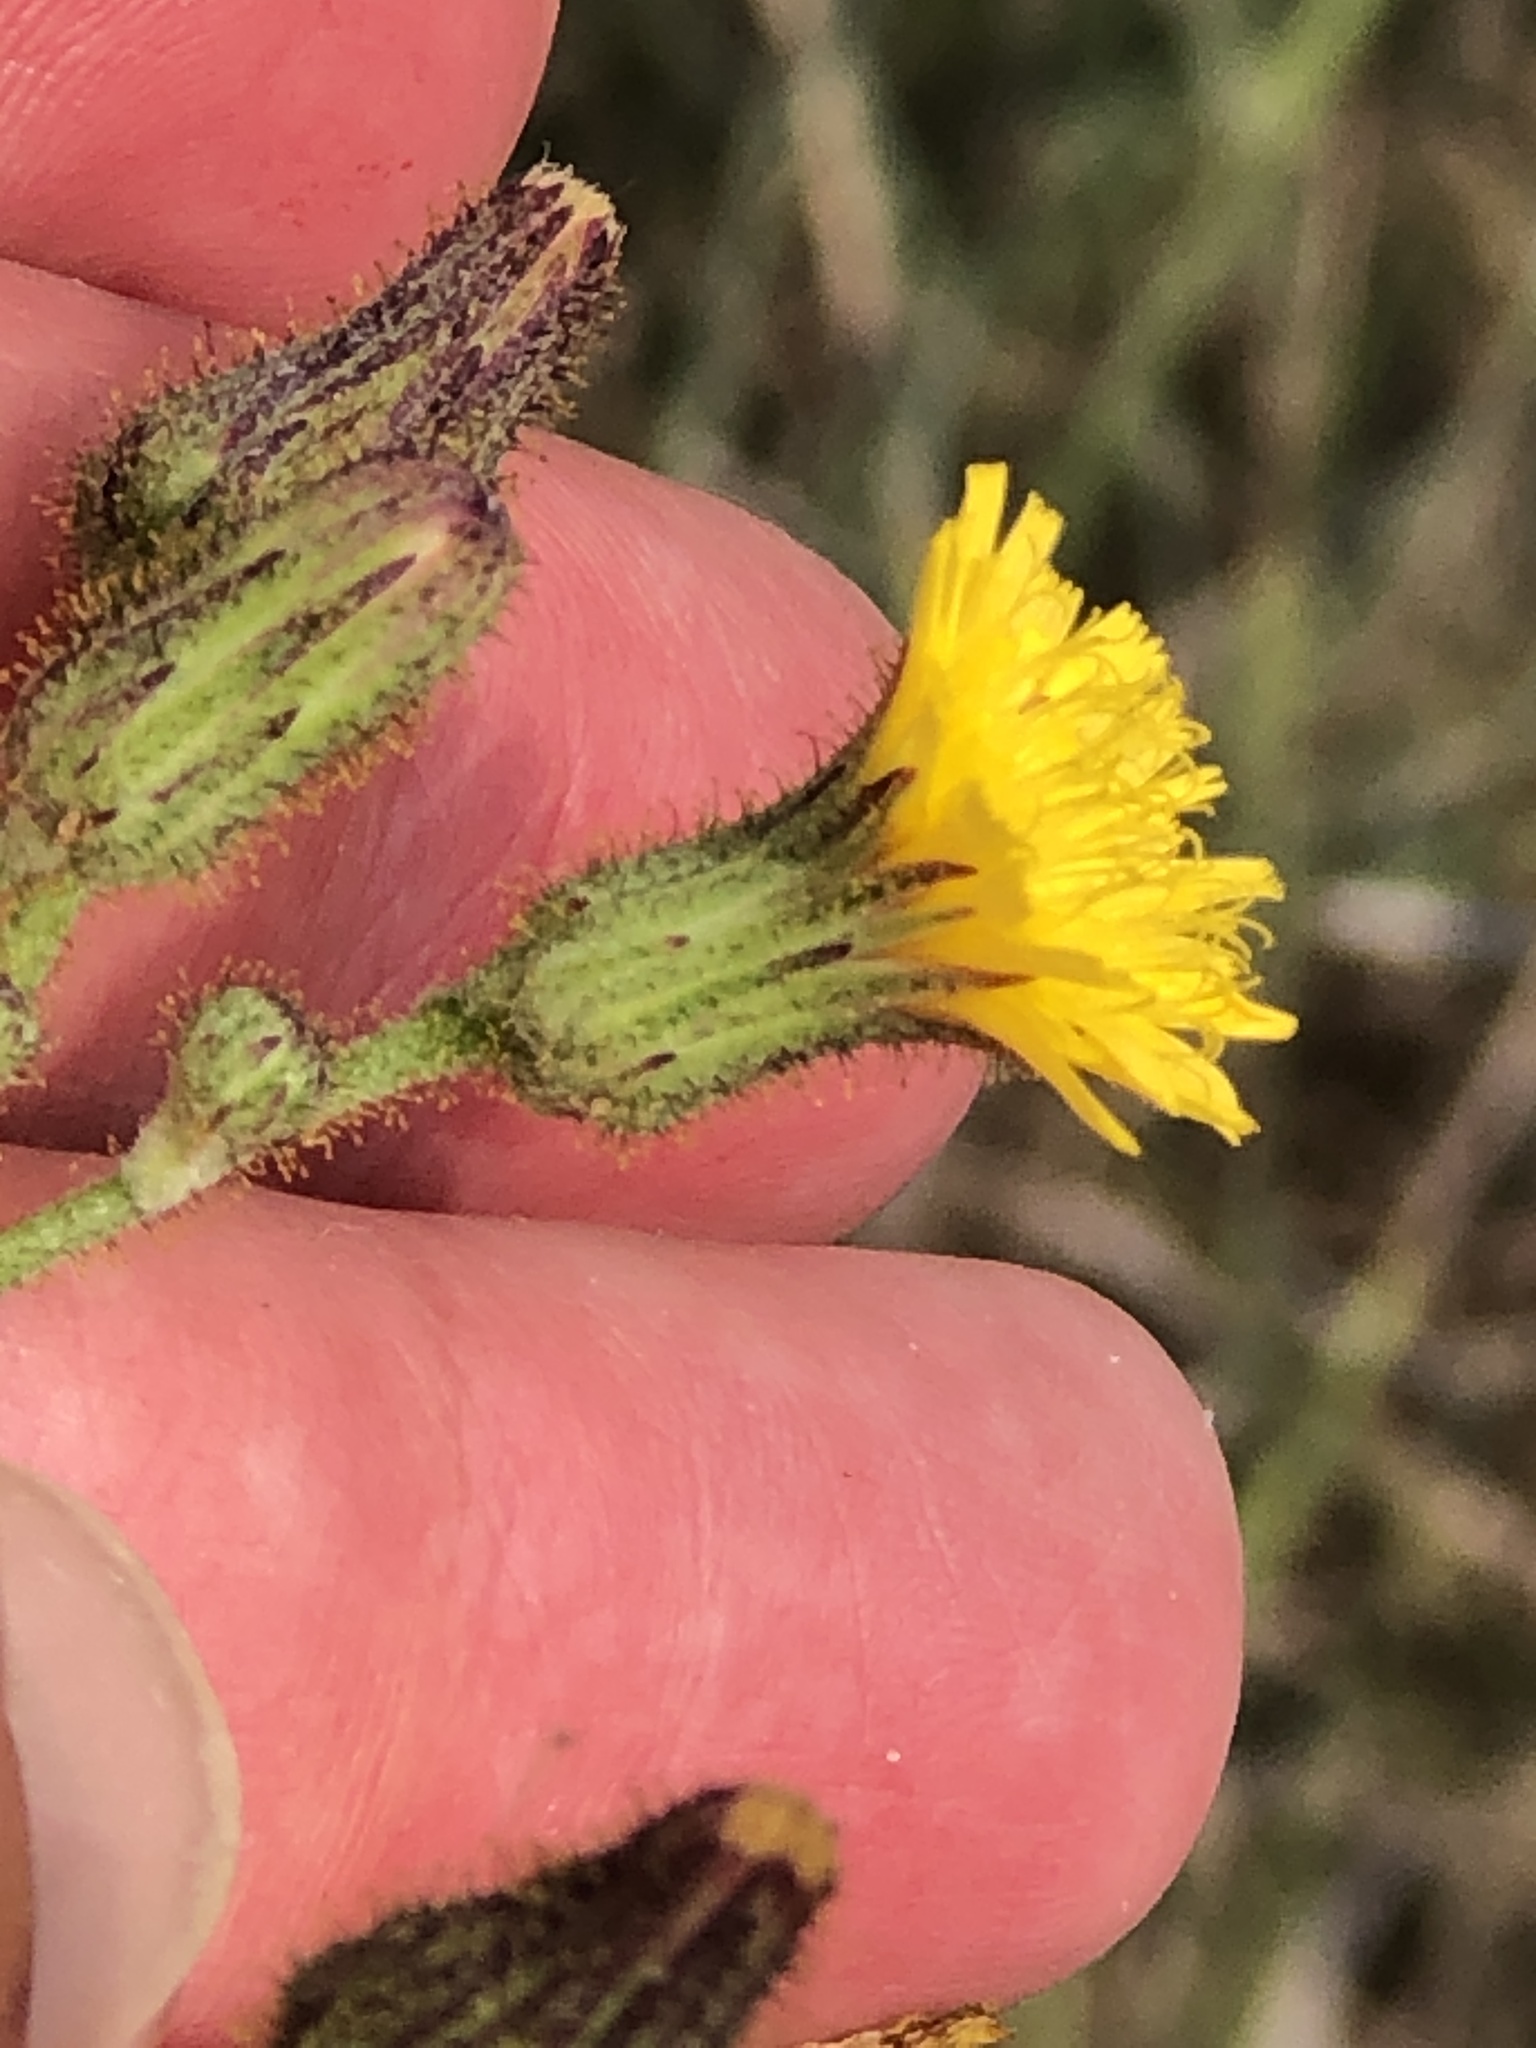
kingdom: Plantae
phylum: Tracheophyta
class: Magnoliopsida
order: Asterales
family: Asteraceae
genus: Hieracium
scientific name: Hieracium longipilum
